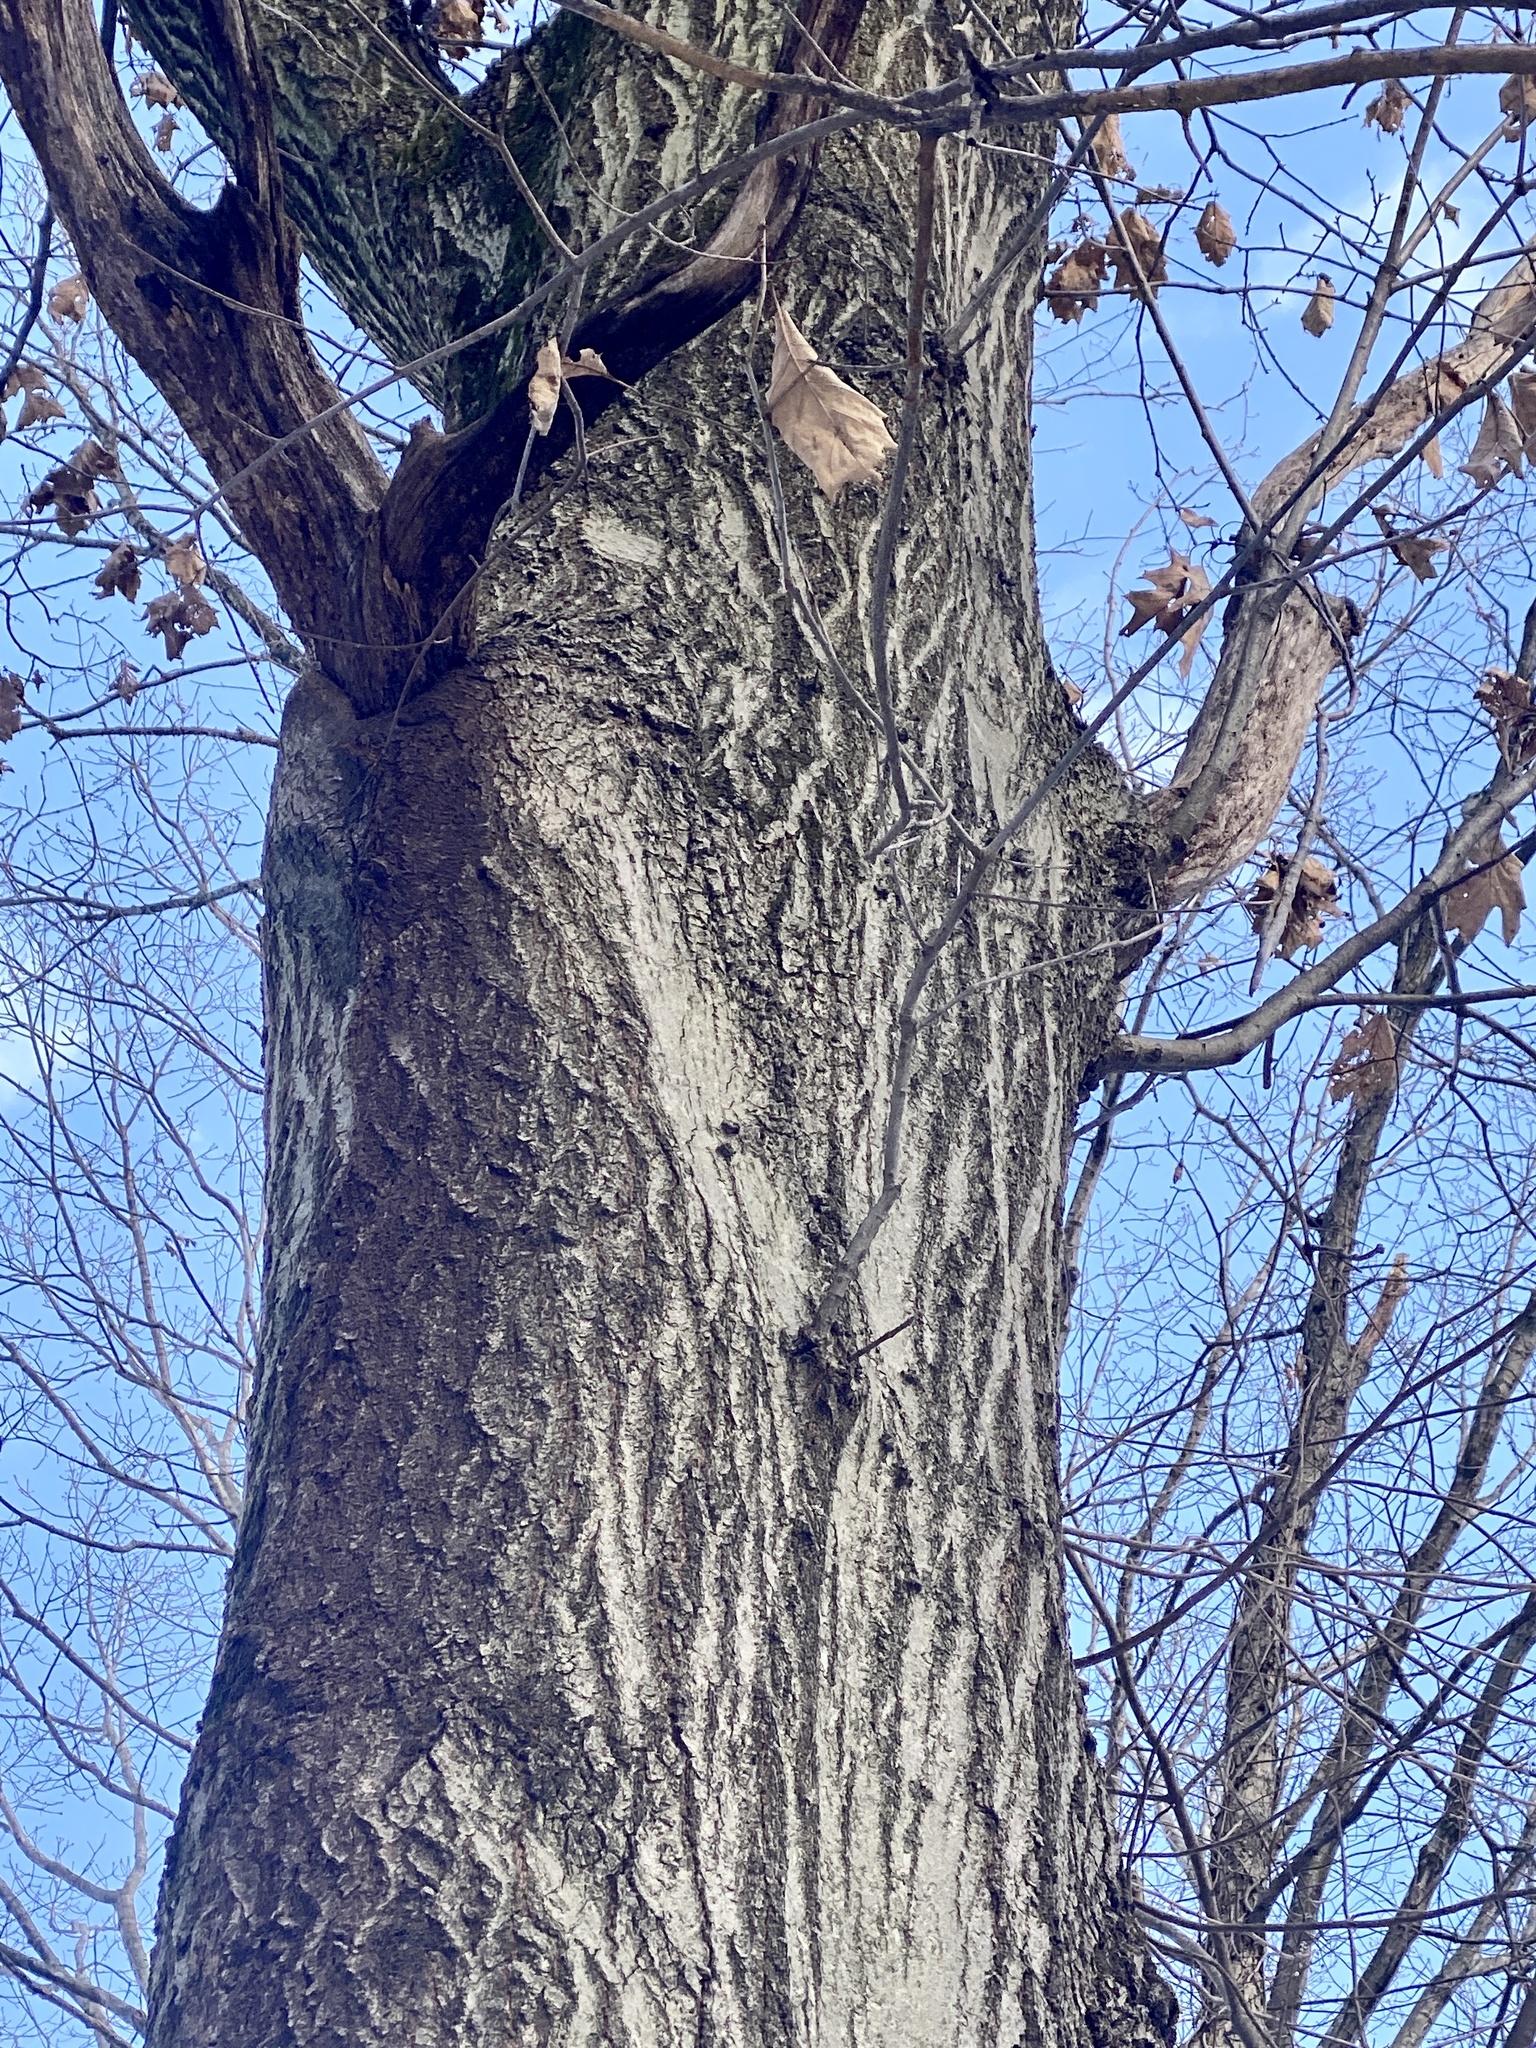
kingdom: Plantae
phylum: Tracheophyta
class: Magnoliopsida
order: Fagales
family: Fagaceae
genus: Quercus
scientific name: Quercus rubra
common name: Red oak
